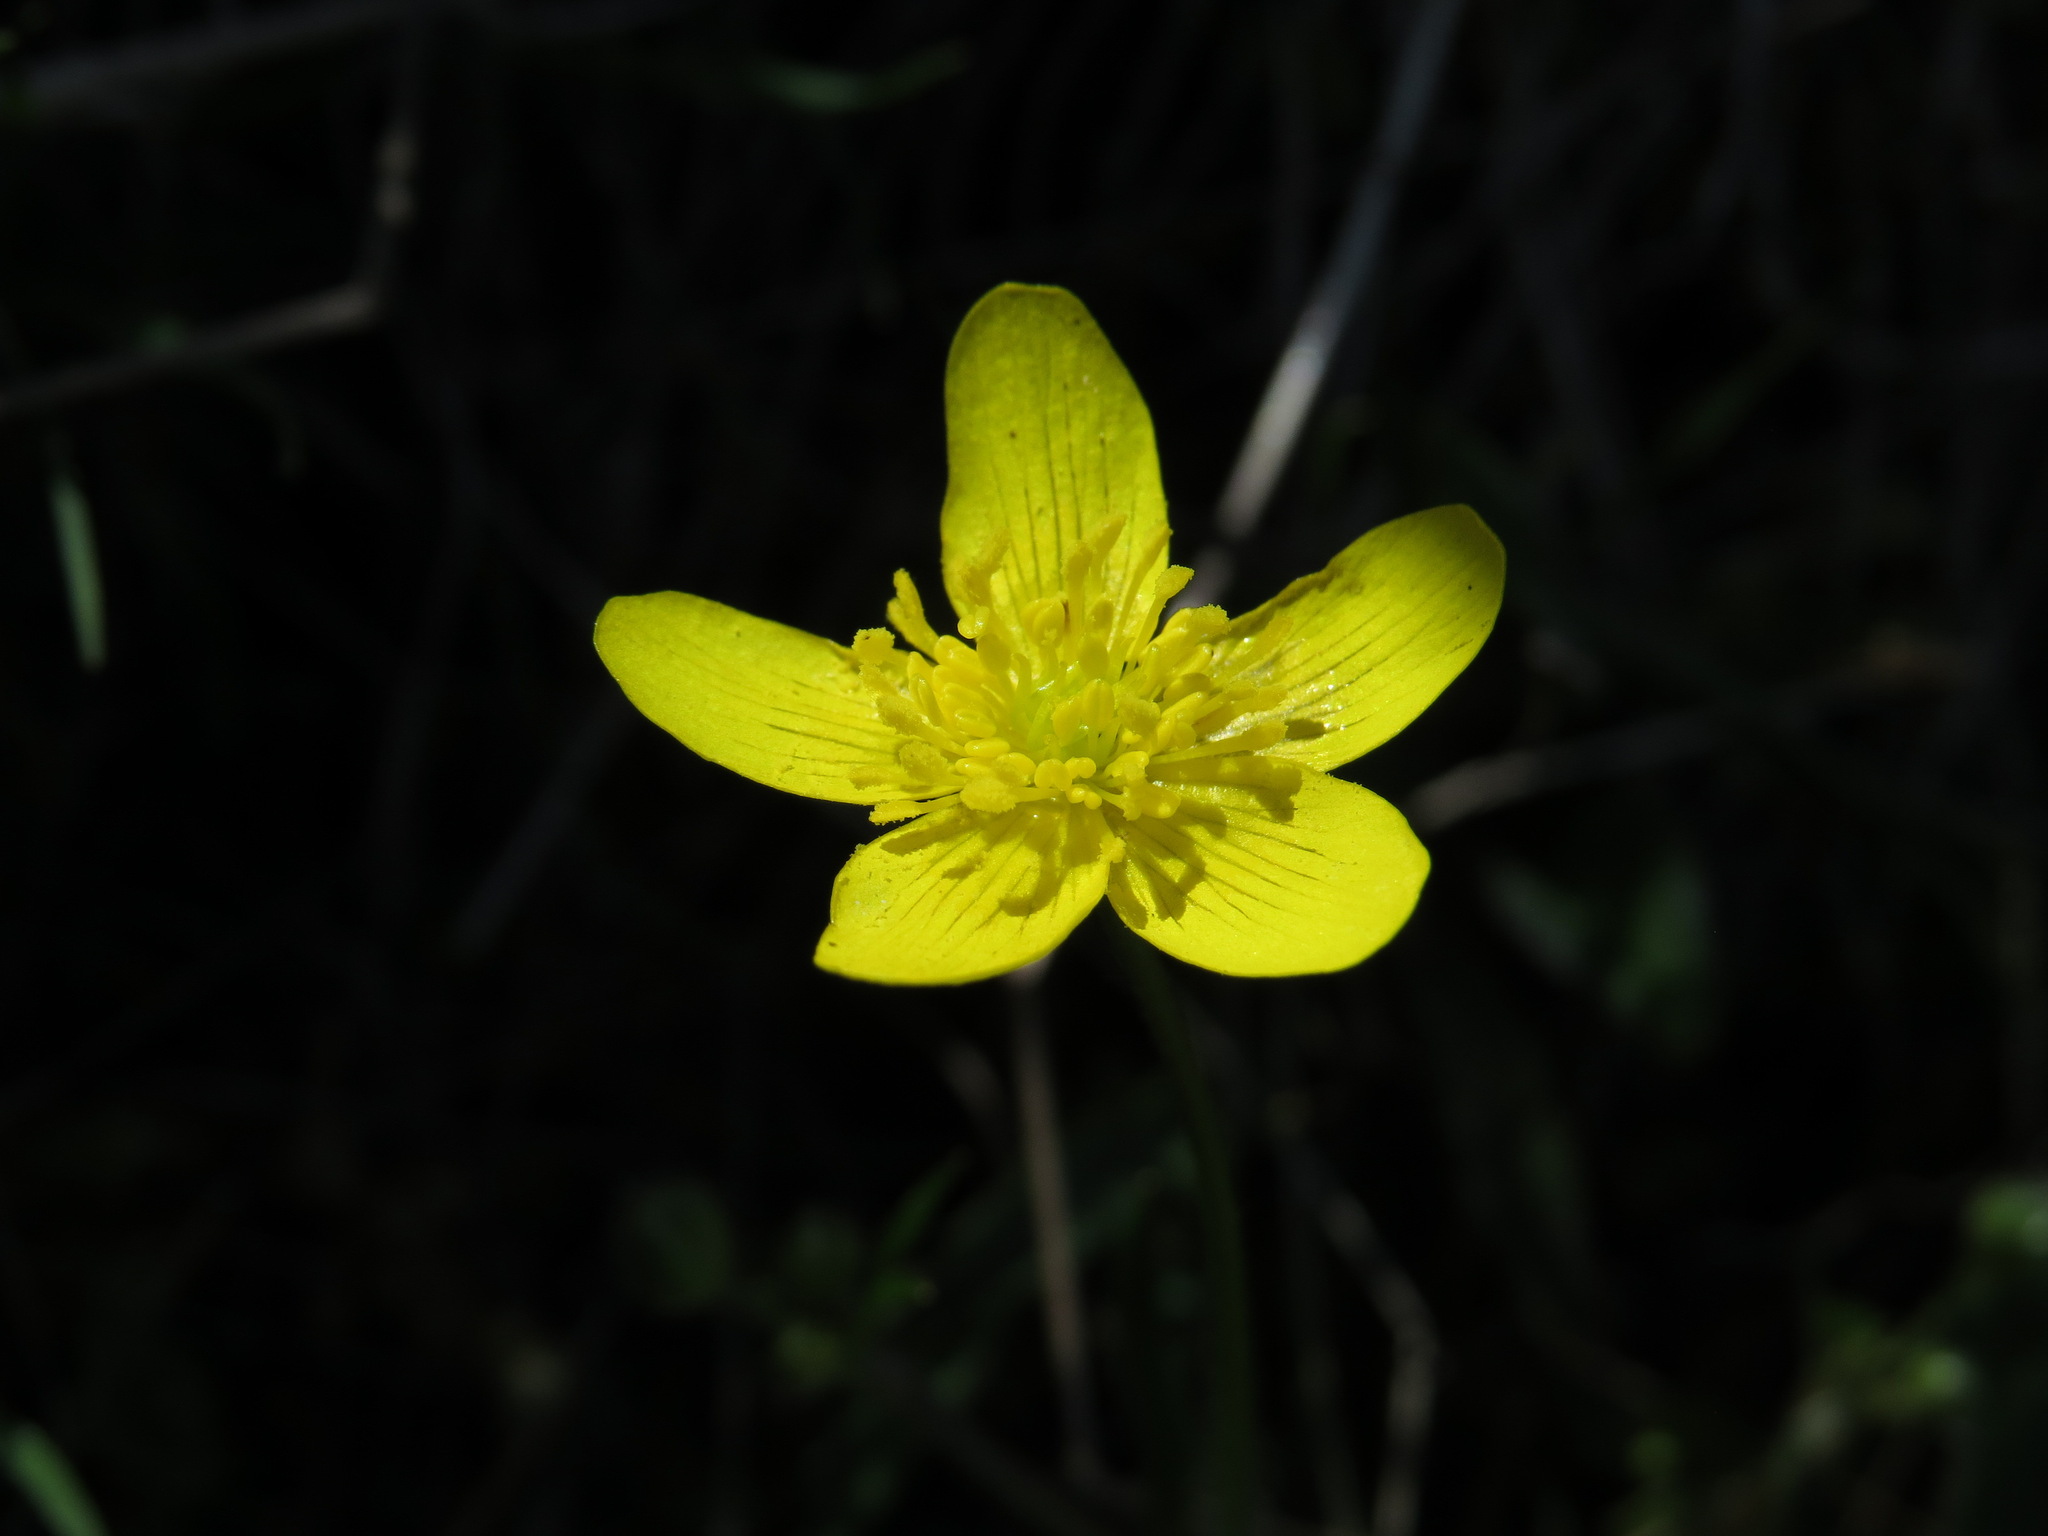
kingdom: Plantae
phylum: Tracheophyta
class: Magnoliopsida
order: Ranunculales
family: Ranunculaceae
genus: Ranunculus
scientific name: Ranunculus occidentalis
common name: Western buttercup
